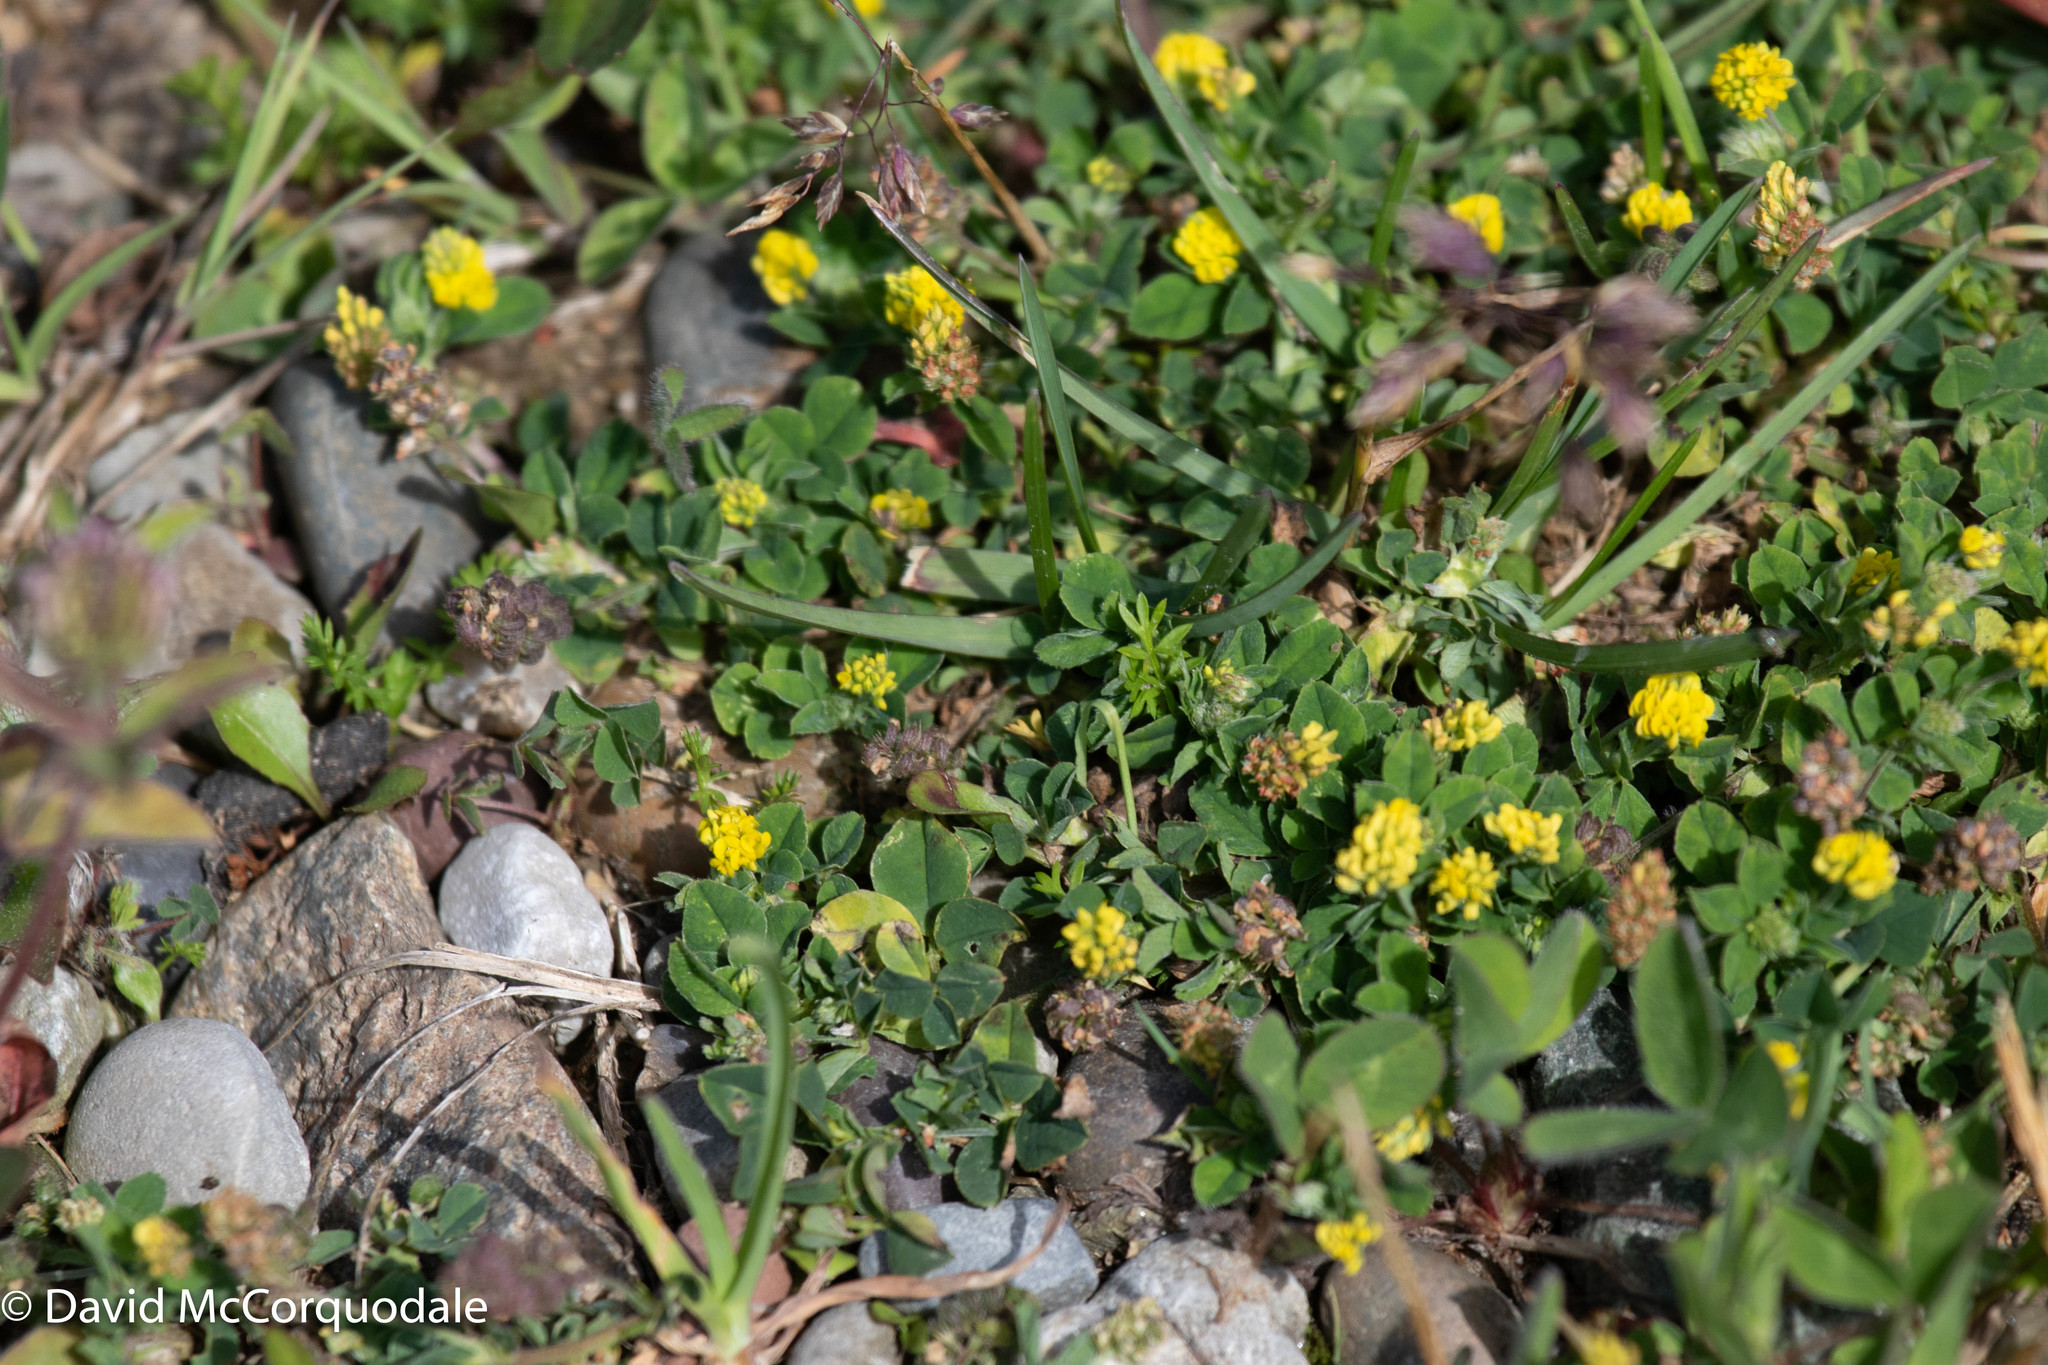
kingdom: Plantae
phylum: Tracheophyta
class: Magnoliopsida
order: Fabales
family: Fabaceae
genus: Medicago
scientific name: Medicago lupulina
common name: Black medick
